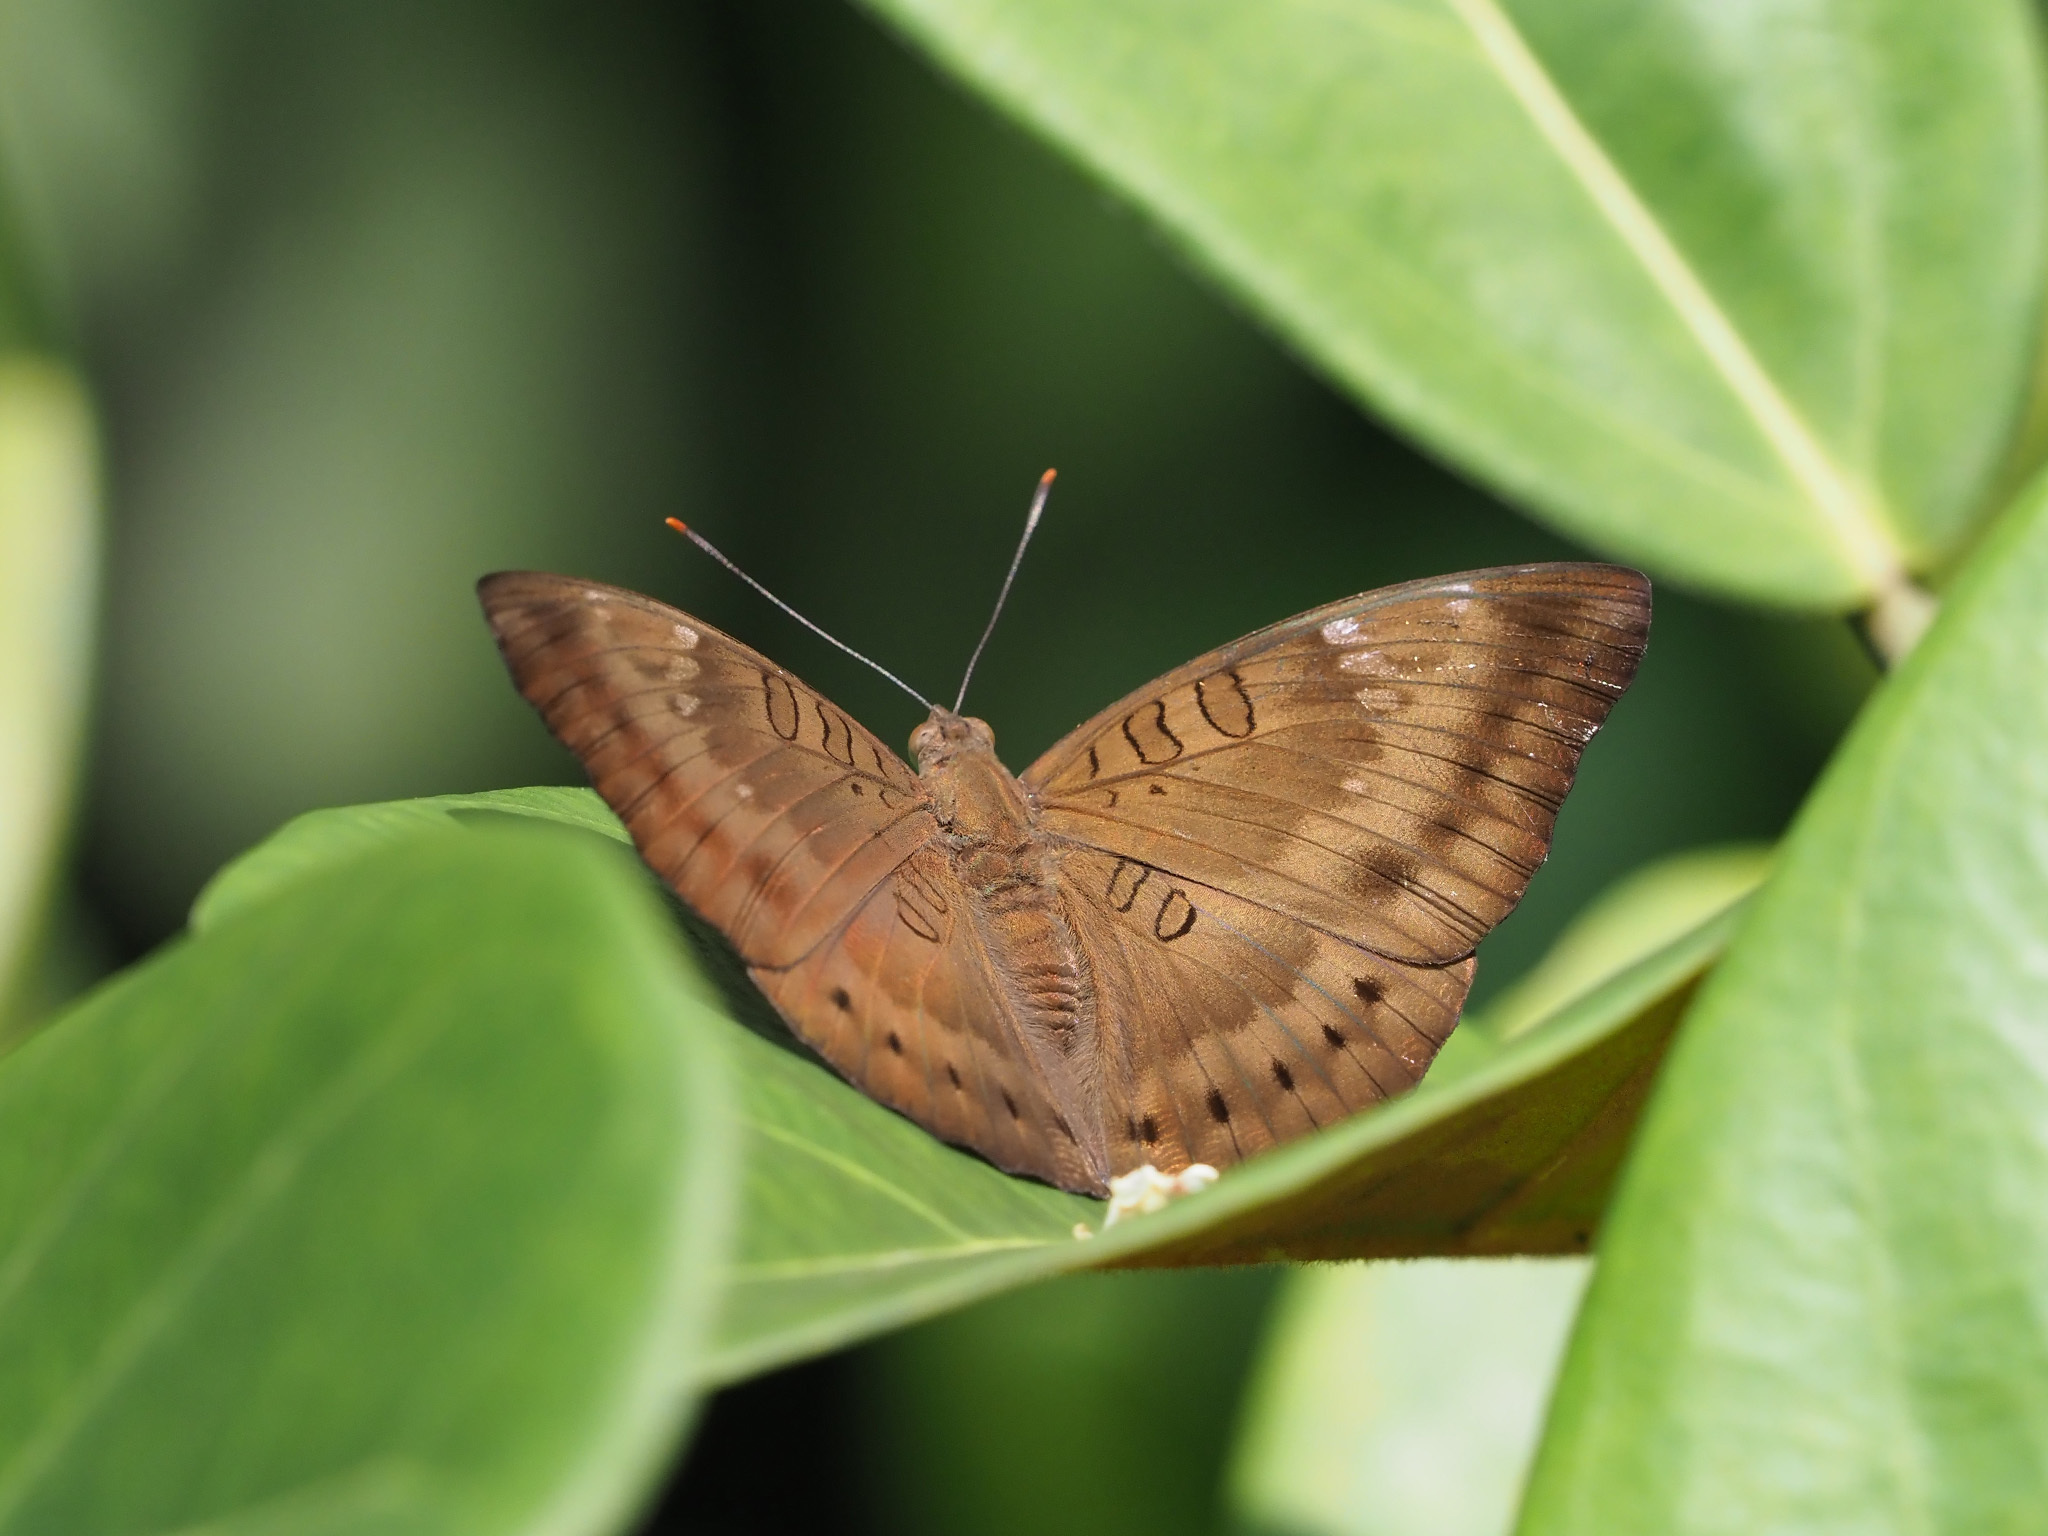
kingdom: Animalia
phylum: Arthropoda
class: Insecta
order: Lepidoptera
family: Nymphalidae
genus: Euthalia
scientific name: Euthalia aconthea
